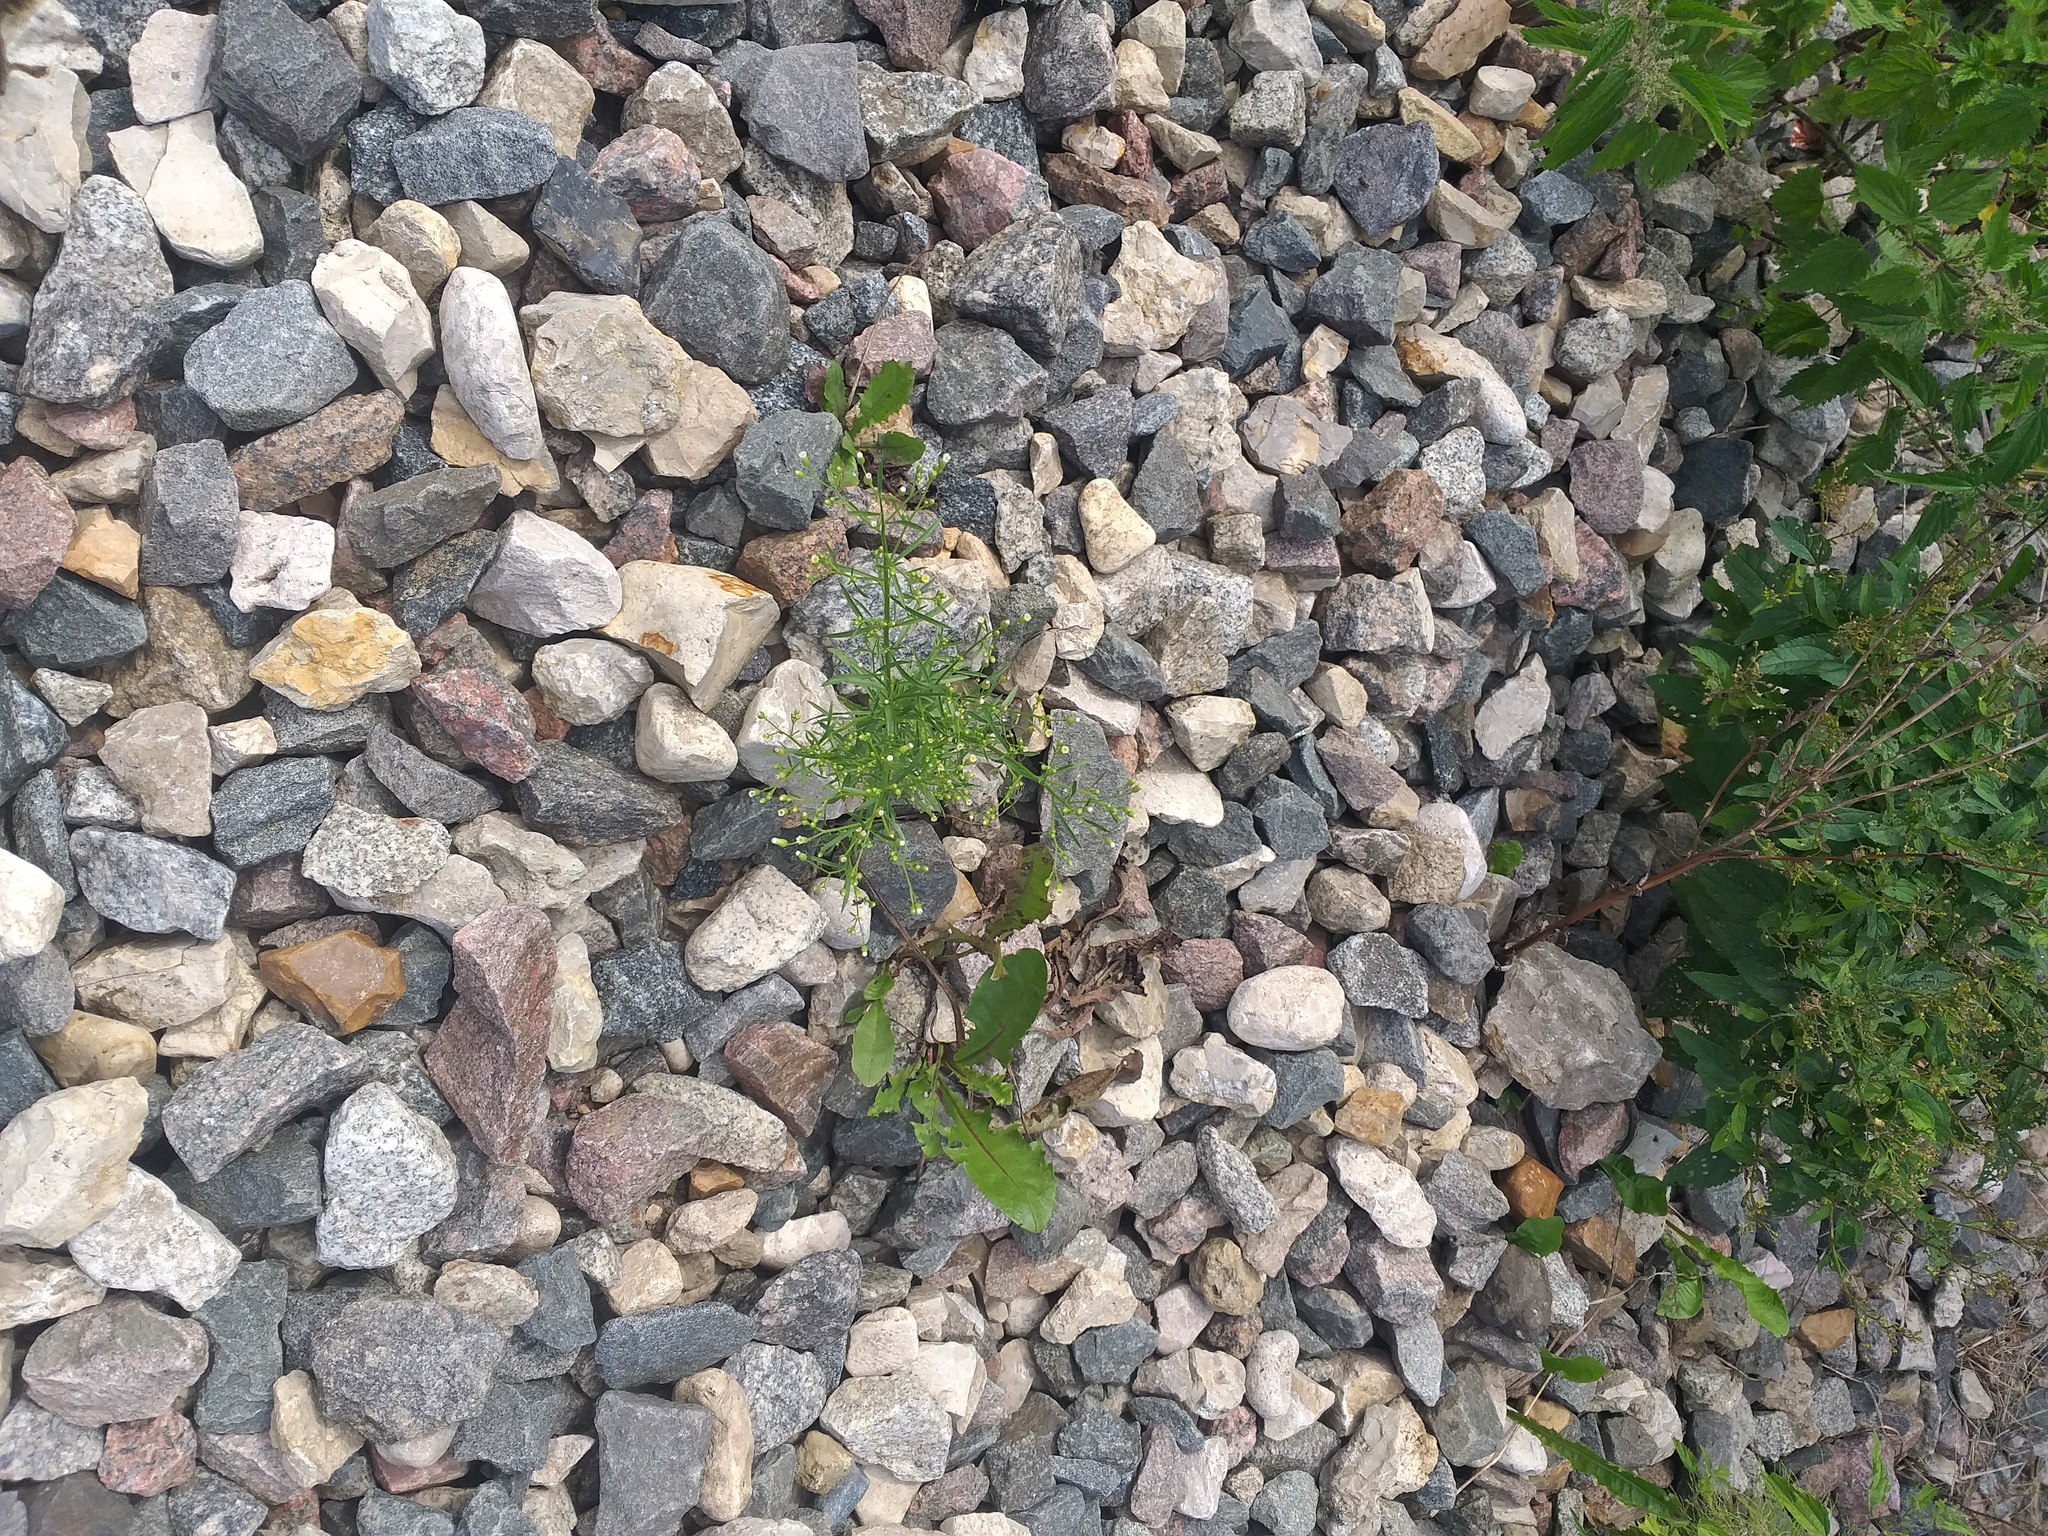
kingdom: Plantae
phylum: Tracheophyta
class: Magnoliopsida
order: Asterales
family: Asteraceae
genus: Erigeron
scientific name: Erigeron canadensis
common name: Canadian fleabane
